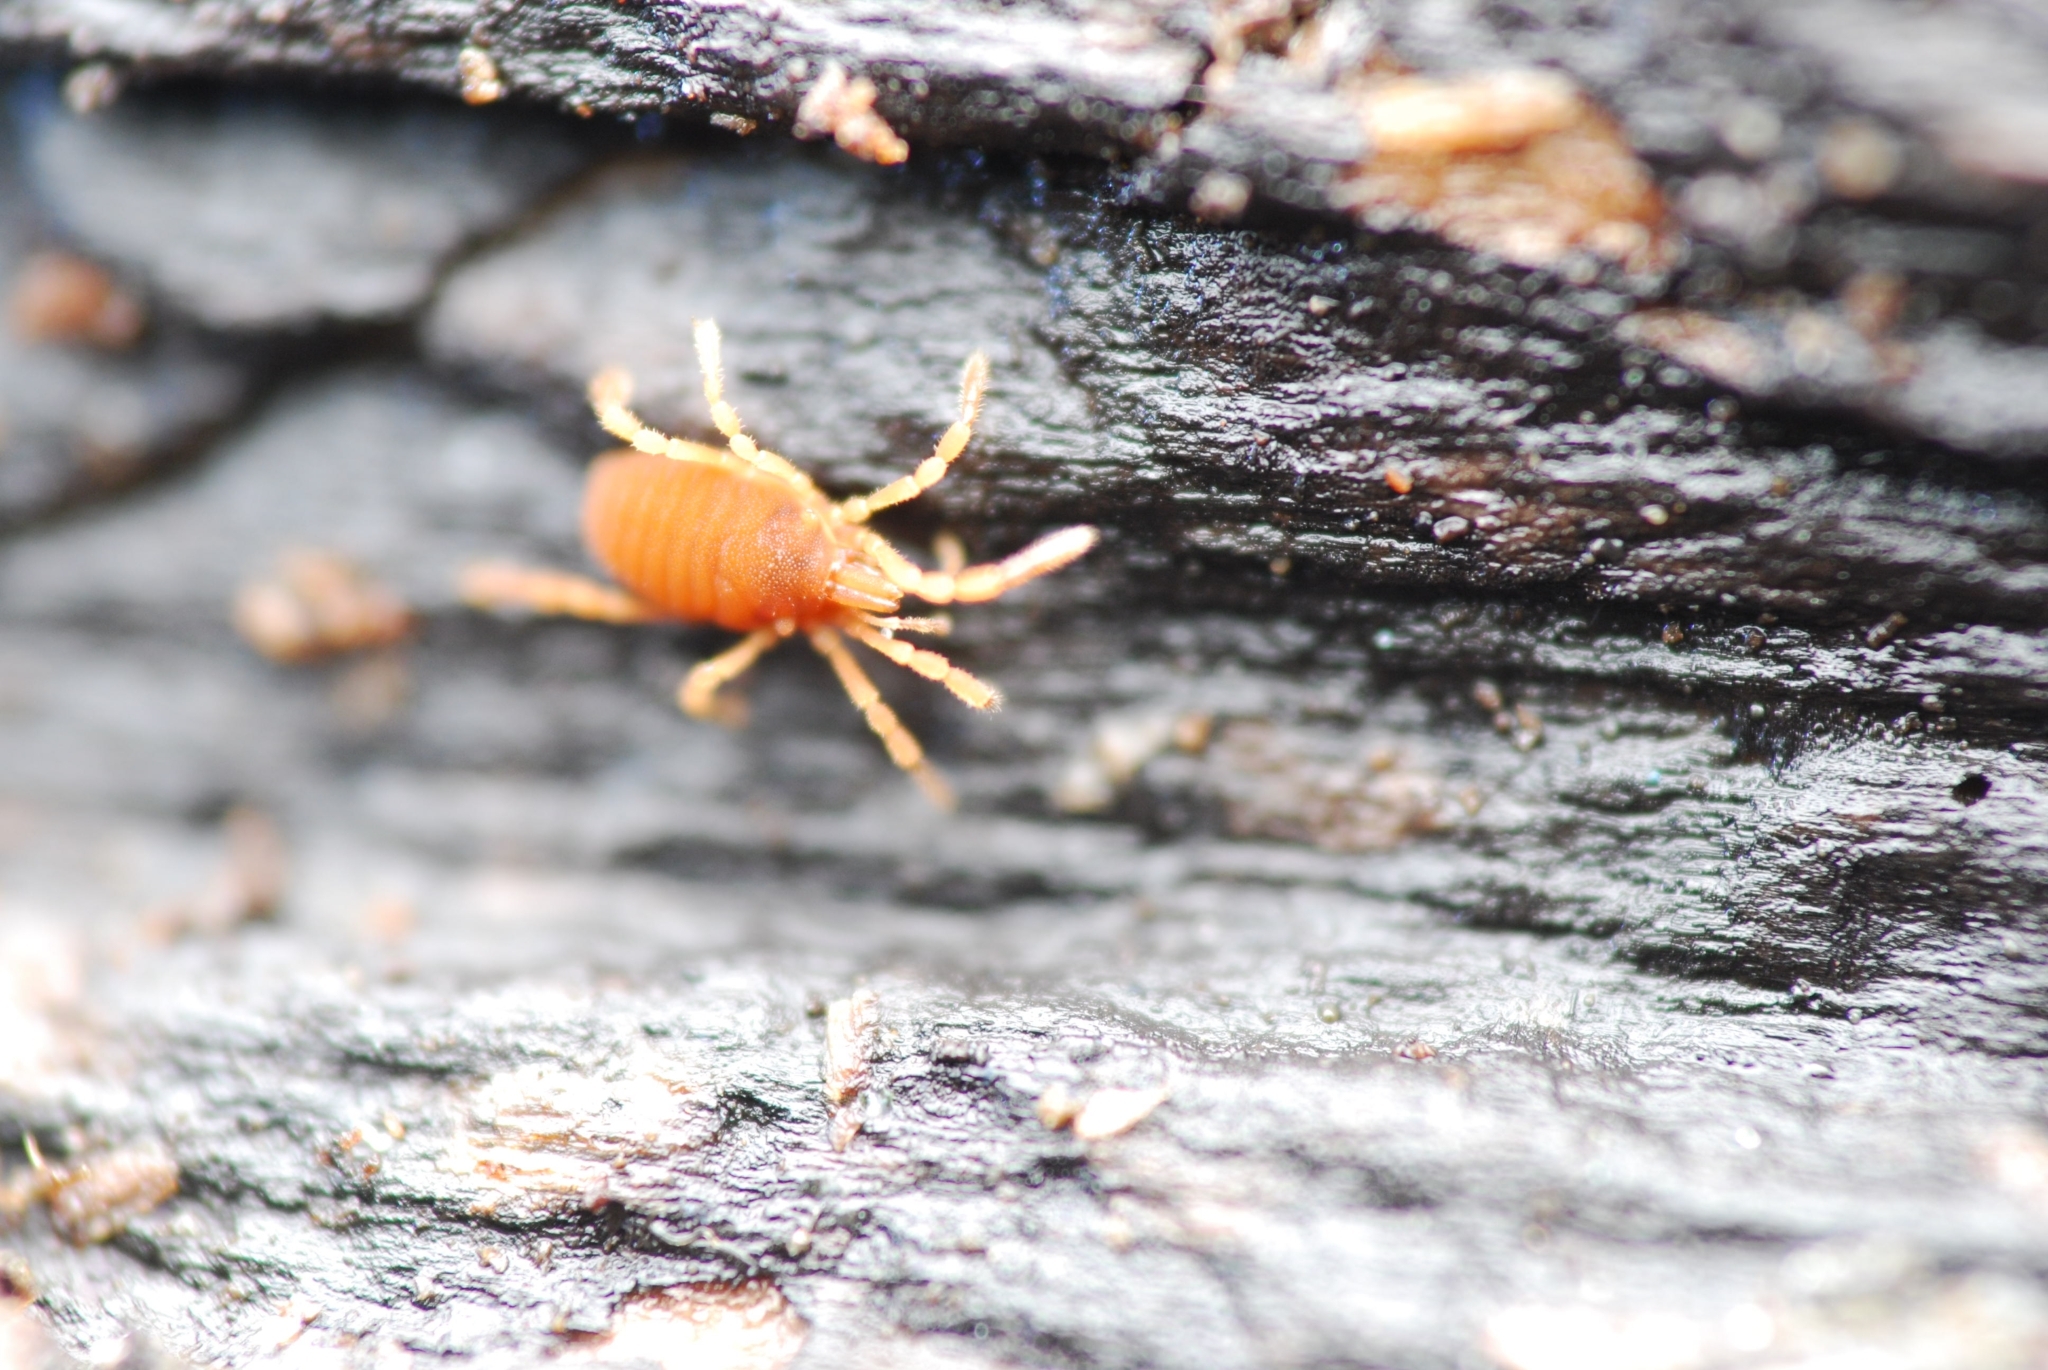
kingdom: Animalia
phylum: Arthropoda
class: Arachnida
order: Opiliones
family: Sironidae
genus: Siro
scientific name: Siro rubens
